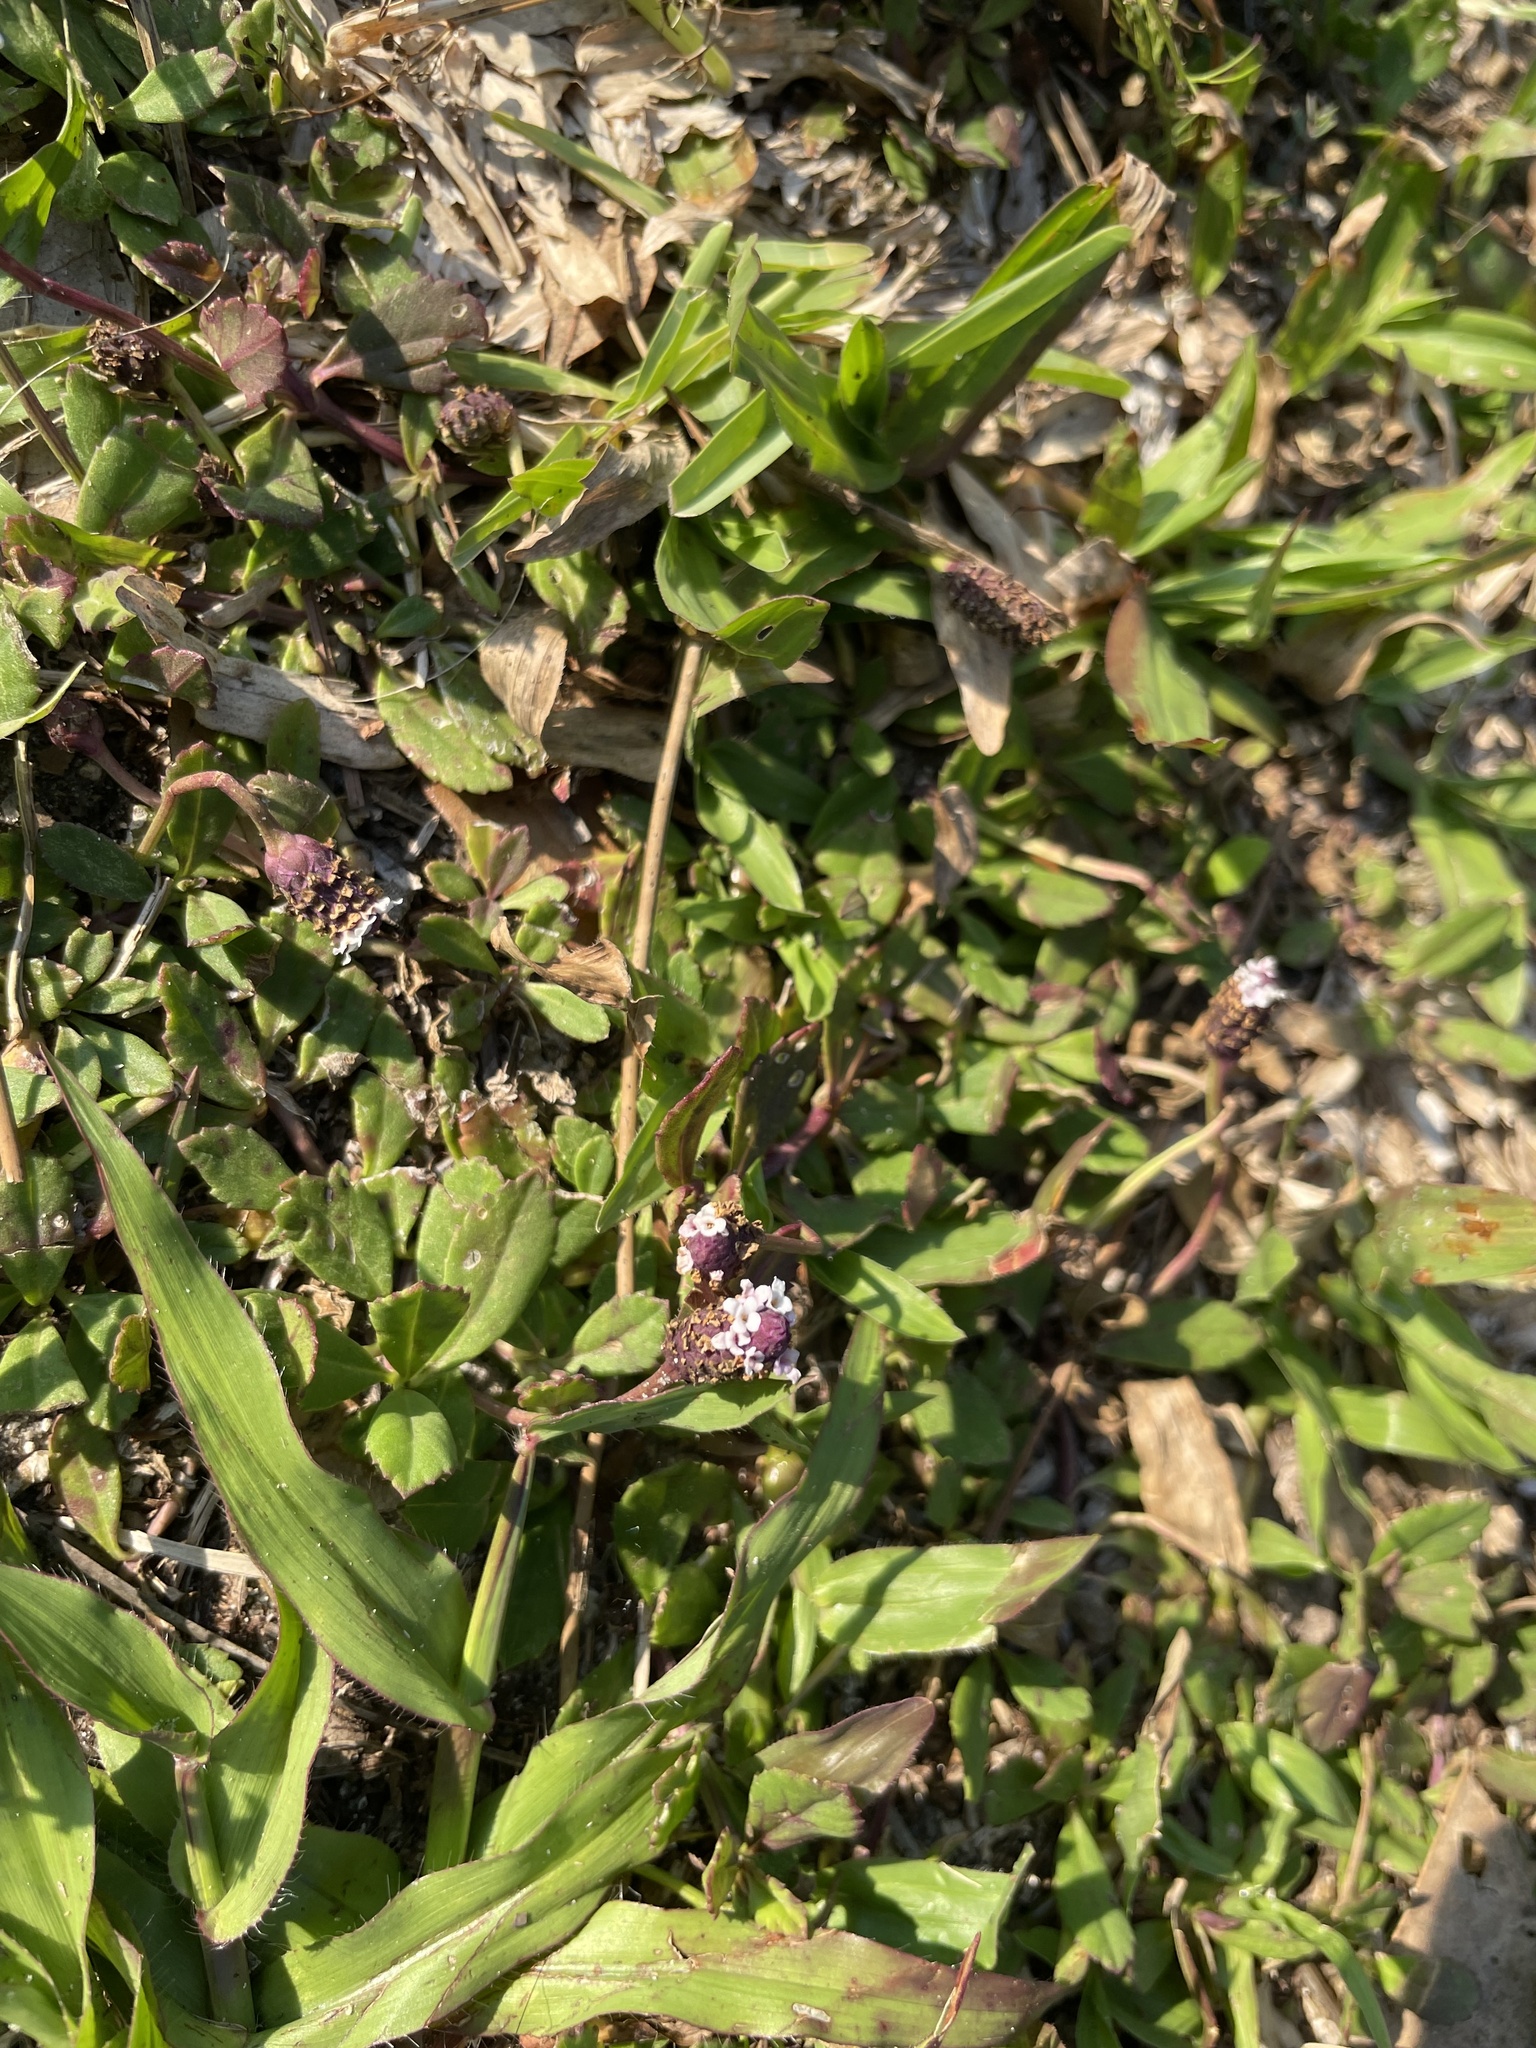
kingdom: Plantae
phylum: Tracheophyta
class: Magnoliopsida
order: Lamiales
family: Verbenaceae
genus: Phyla
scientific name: Phyla nodiflora
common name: Frogfruit
